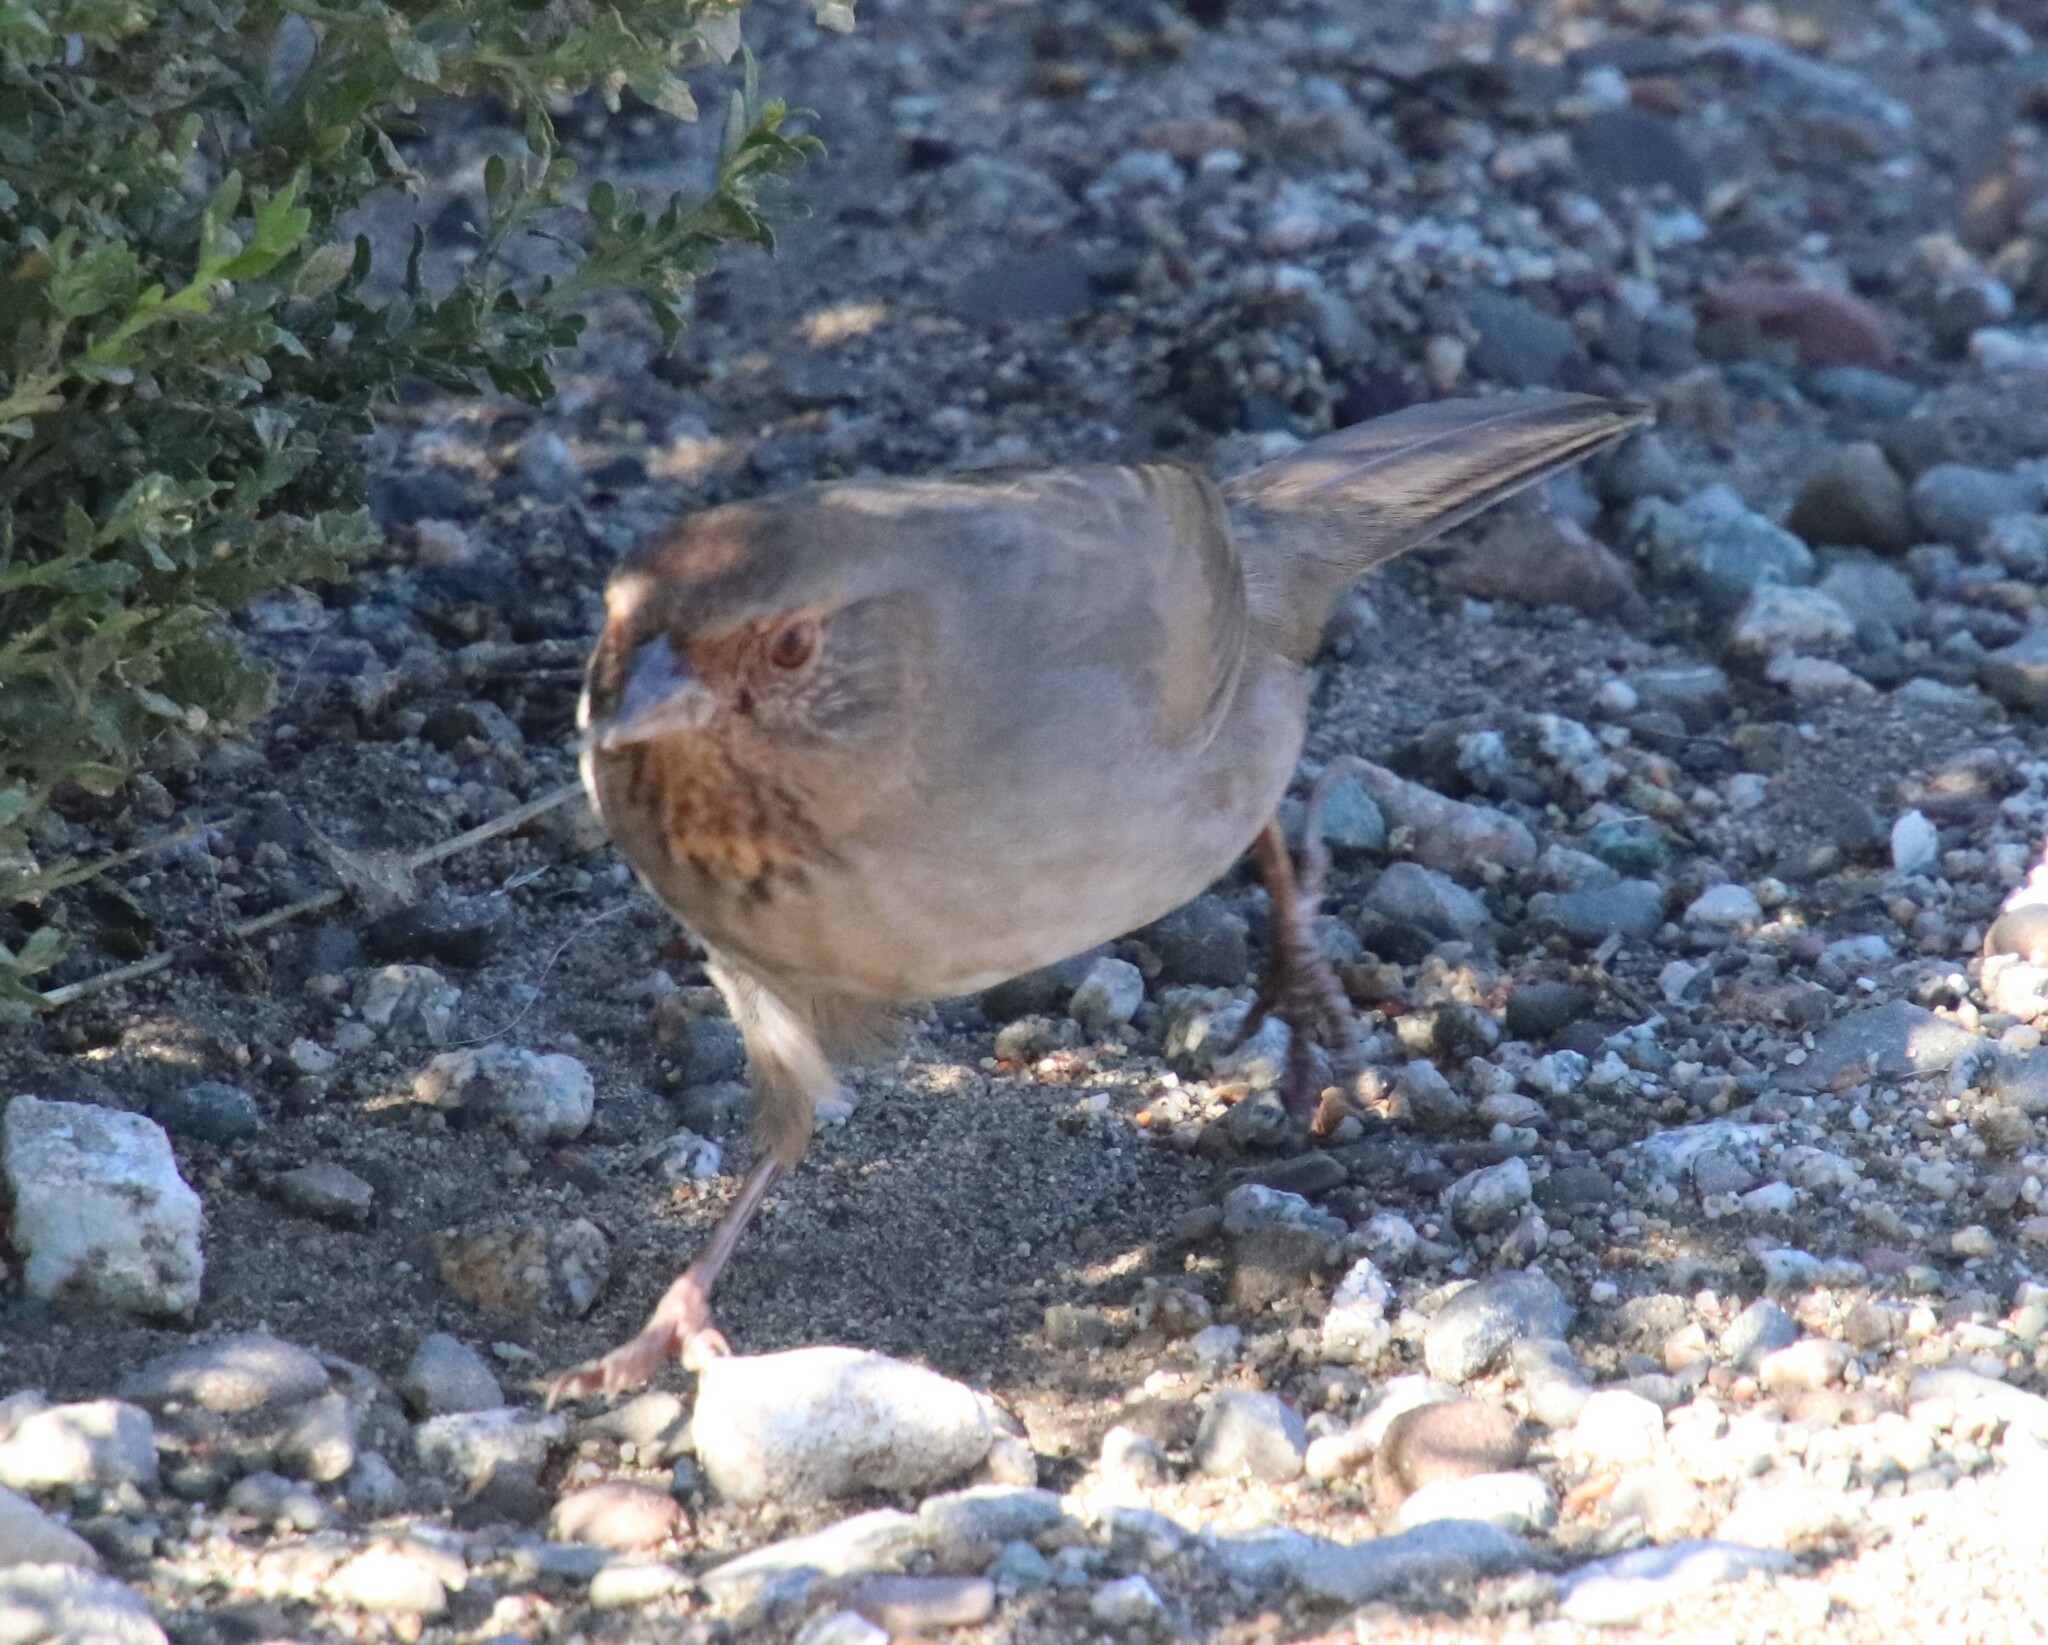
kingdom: Animalia
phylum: Chordata
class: Aves
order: Passeriformes
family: Passerellidae
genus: Melozone
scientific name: Melozone crissalis
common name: California towhee
